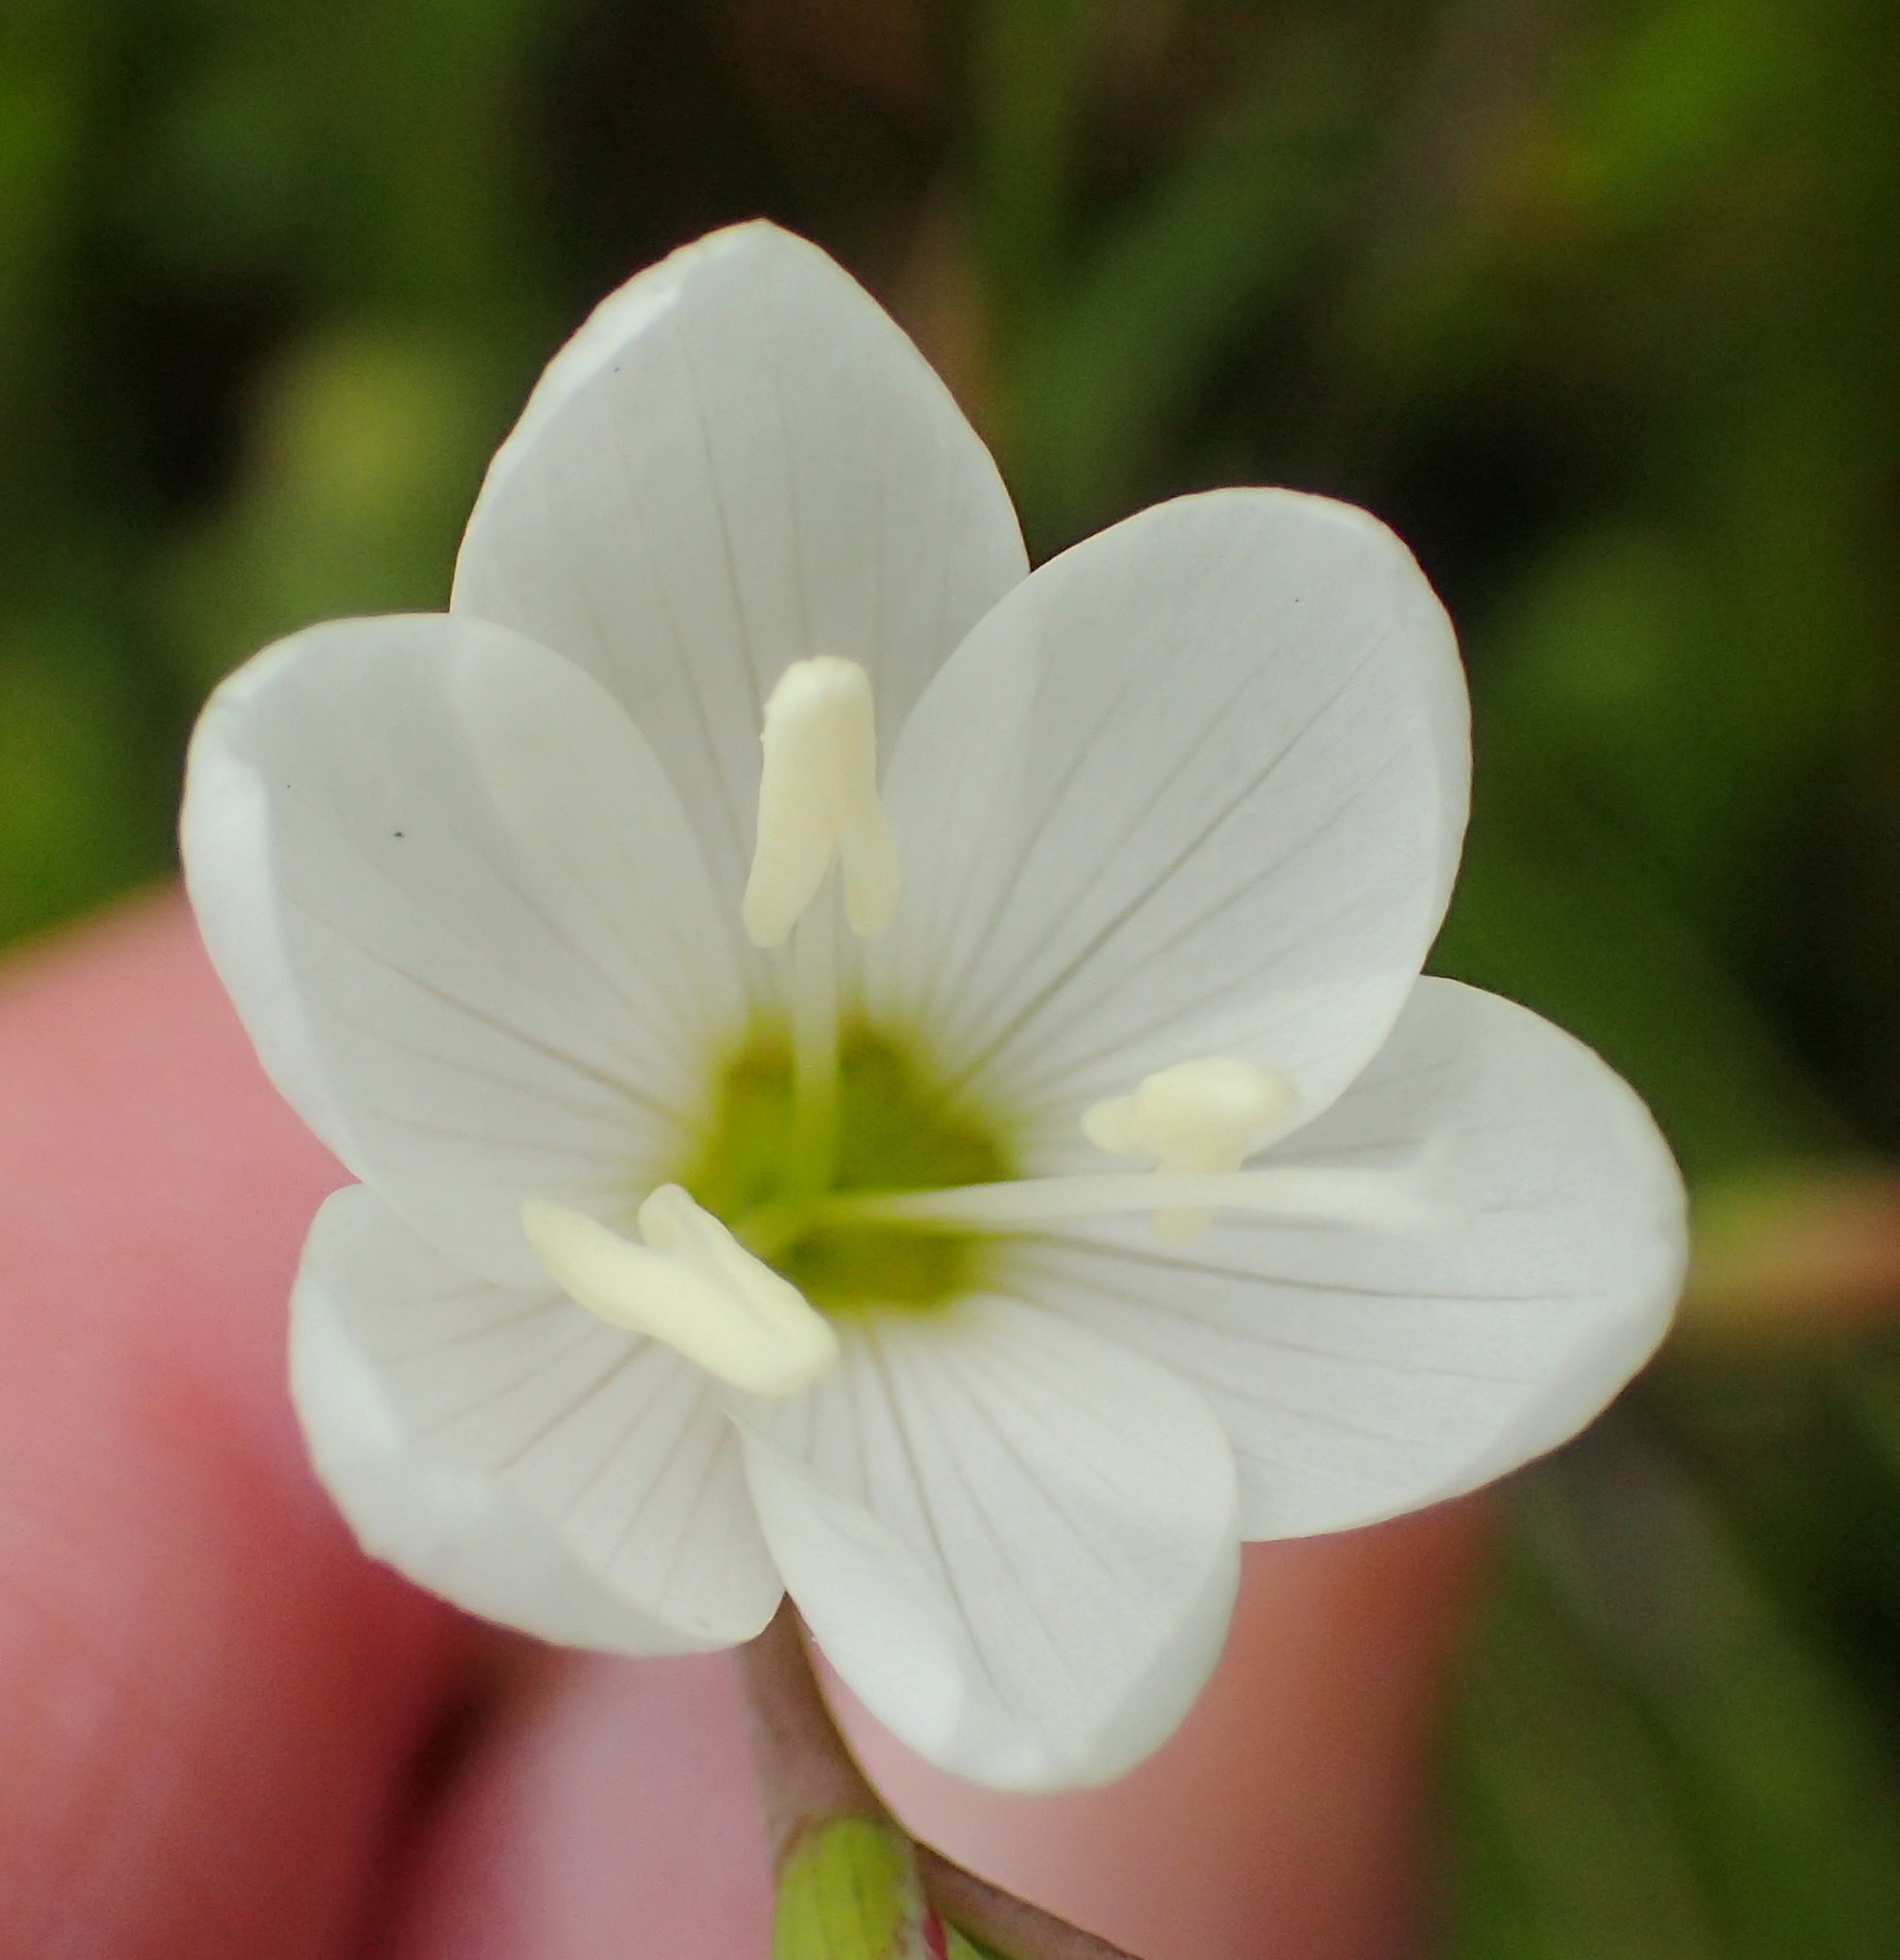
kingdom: Plantae
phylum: Tracheophyta
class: Liliopsida
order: Asparagales
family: Iridaceae
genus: Geissorhiza
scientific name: Geissorhiza inconspicua
